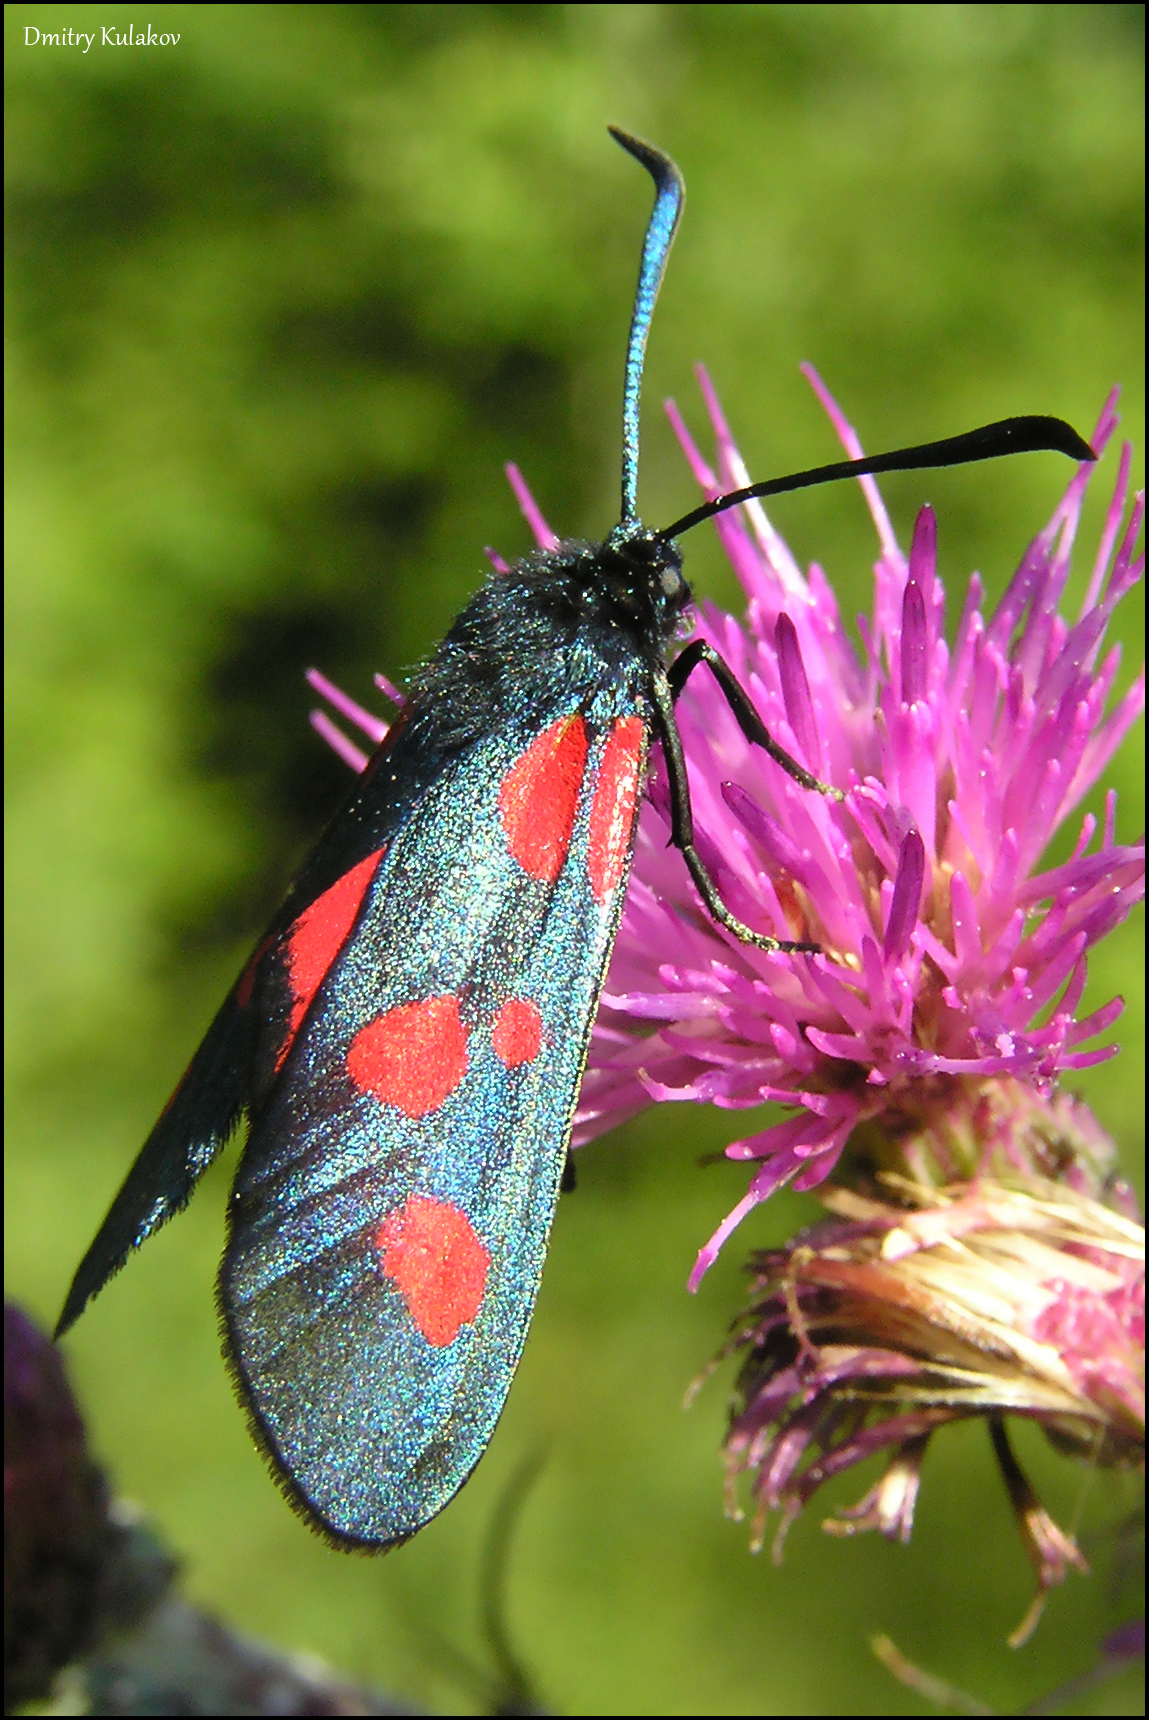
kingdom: Animalia
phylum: Arthropoda
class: Insecta
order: Lepidoptera
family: Zygaenidae
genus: Zygaena
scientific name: Zygaena lonicerae
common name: Narrow-bordered five-spot burnet
